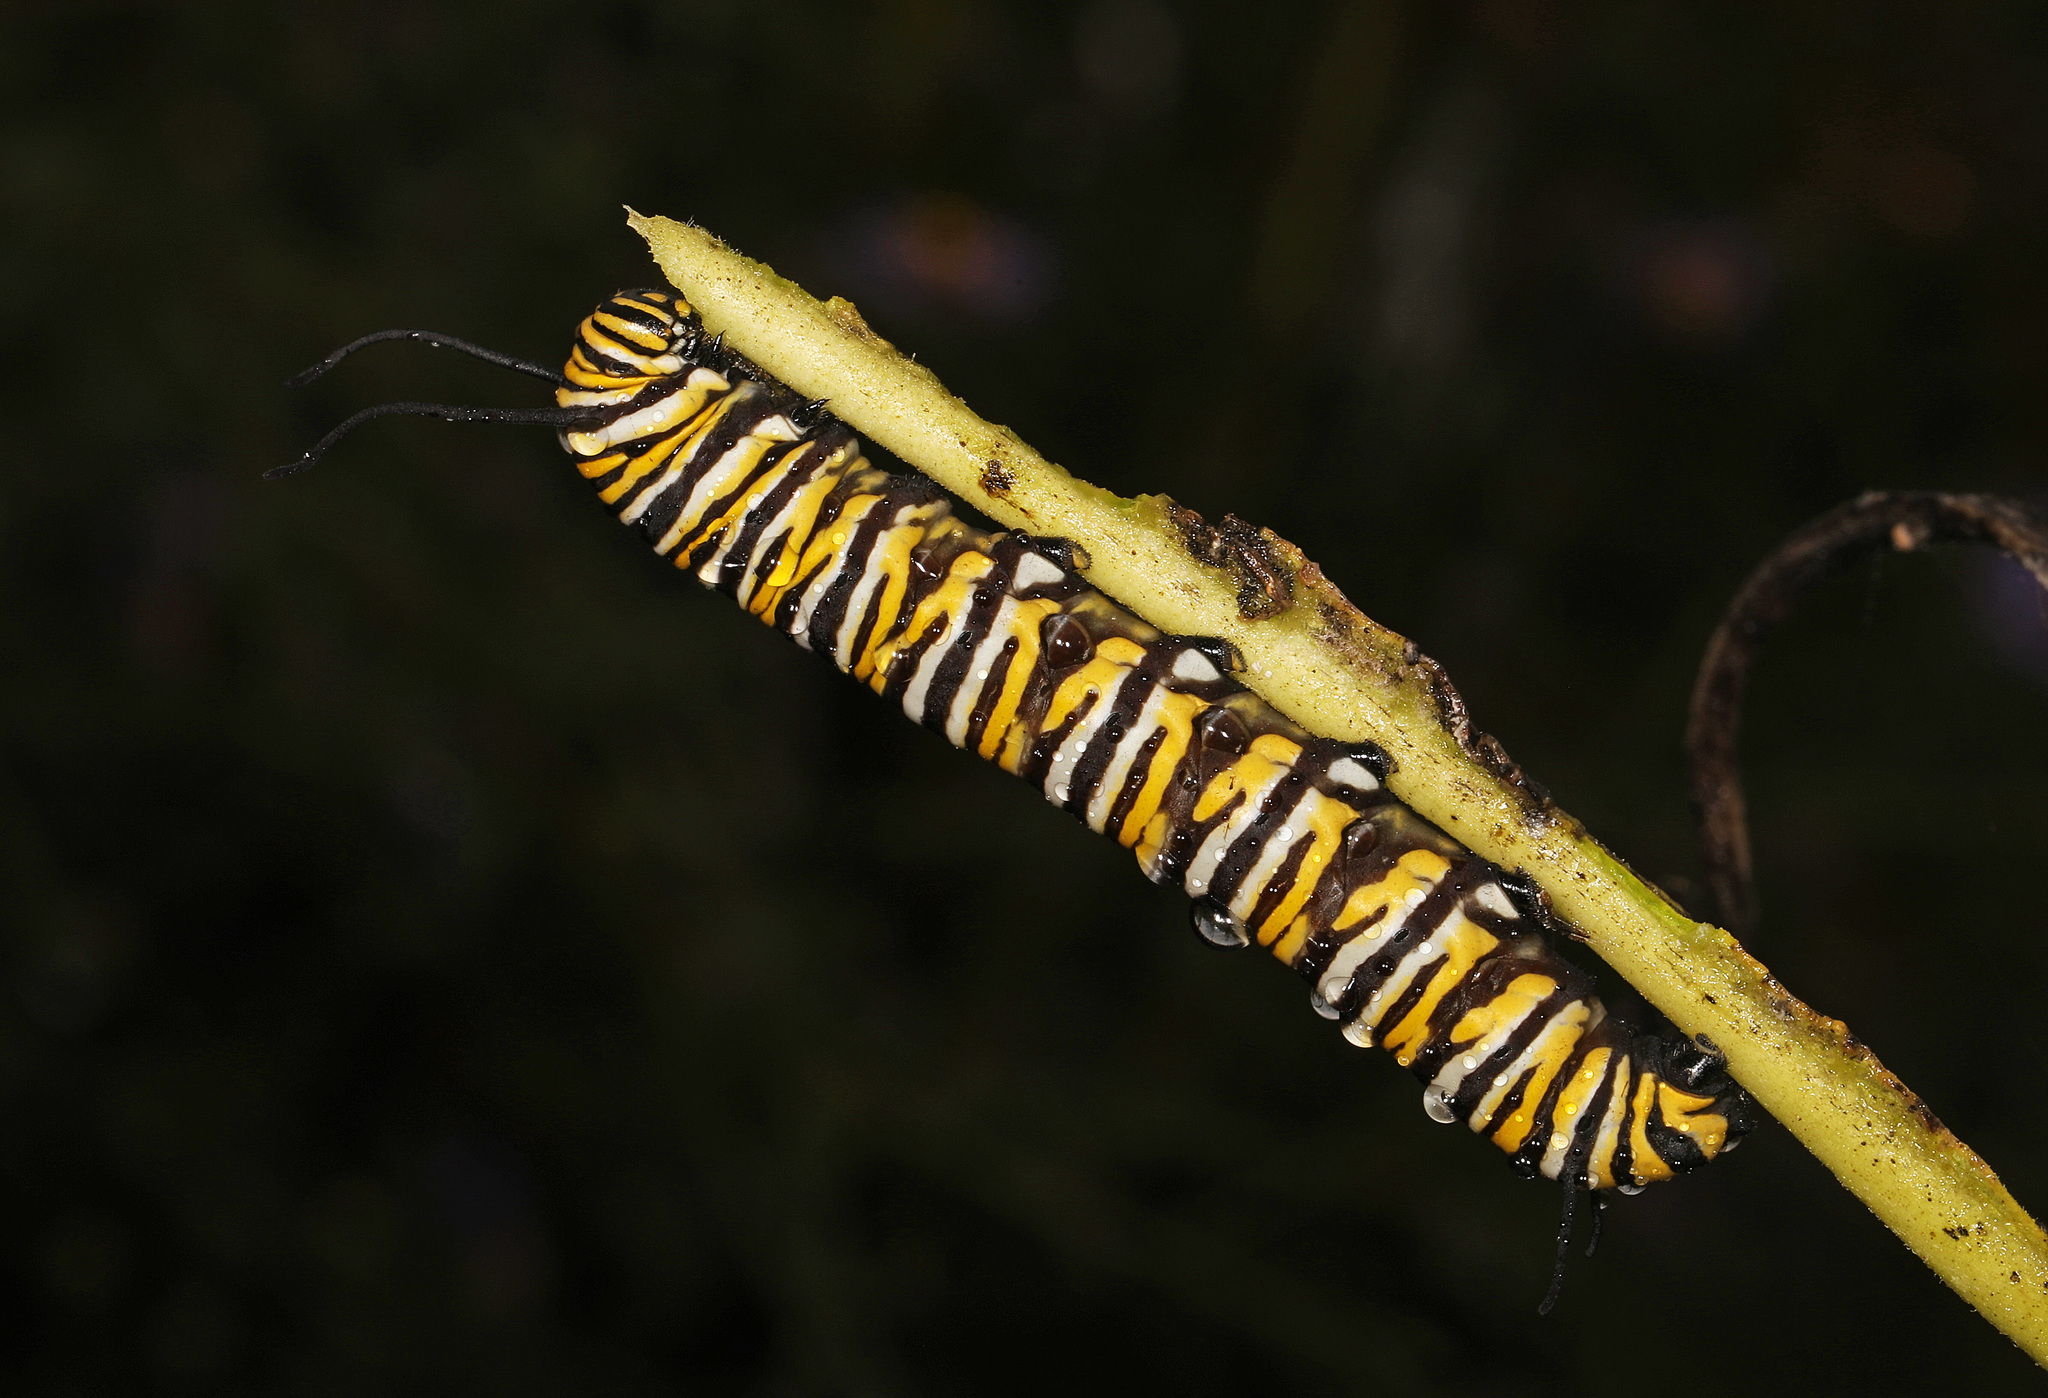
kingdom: Animalia
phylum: Arthropoda
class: Insecta
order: Lepidoptera
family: Nymphalidae
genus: Danaus
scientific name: Danaus plexippus
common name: Monarch
